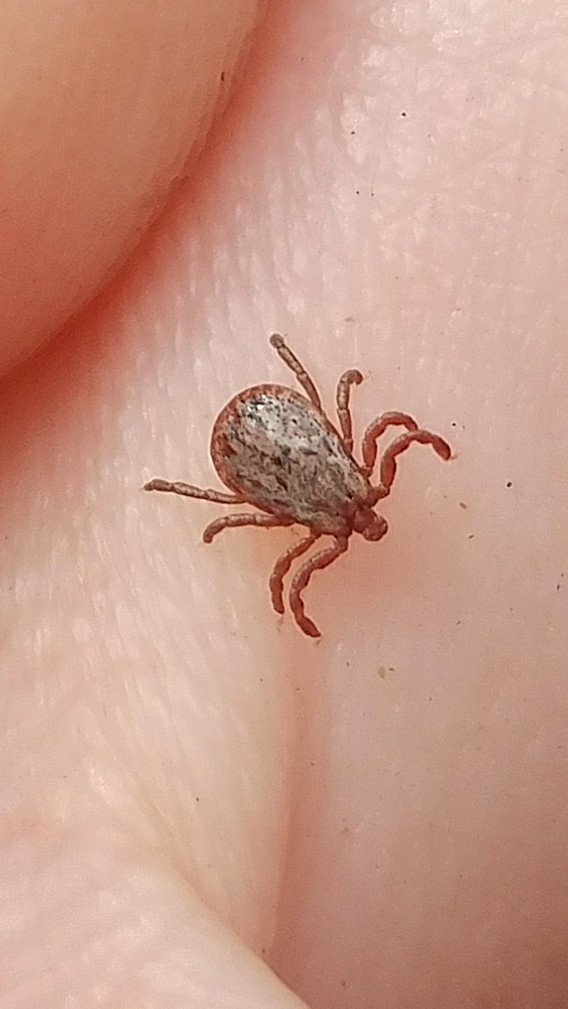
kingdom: Animalia
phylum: Arthropoda
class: Arachnida
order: Ixodida
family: Ixodidae
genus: Dermacentor
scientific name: Dermacentor occidentalis
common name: Net tick
